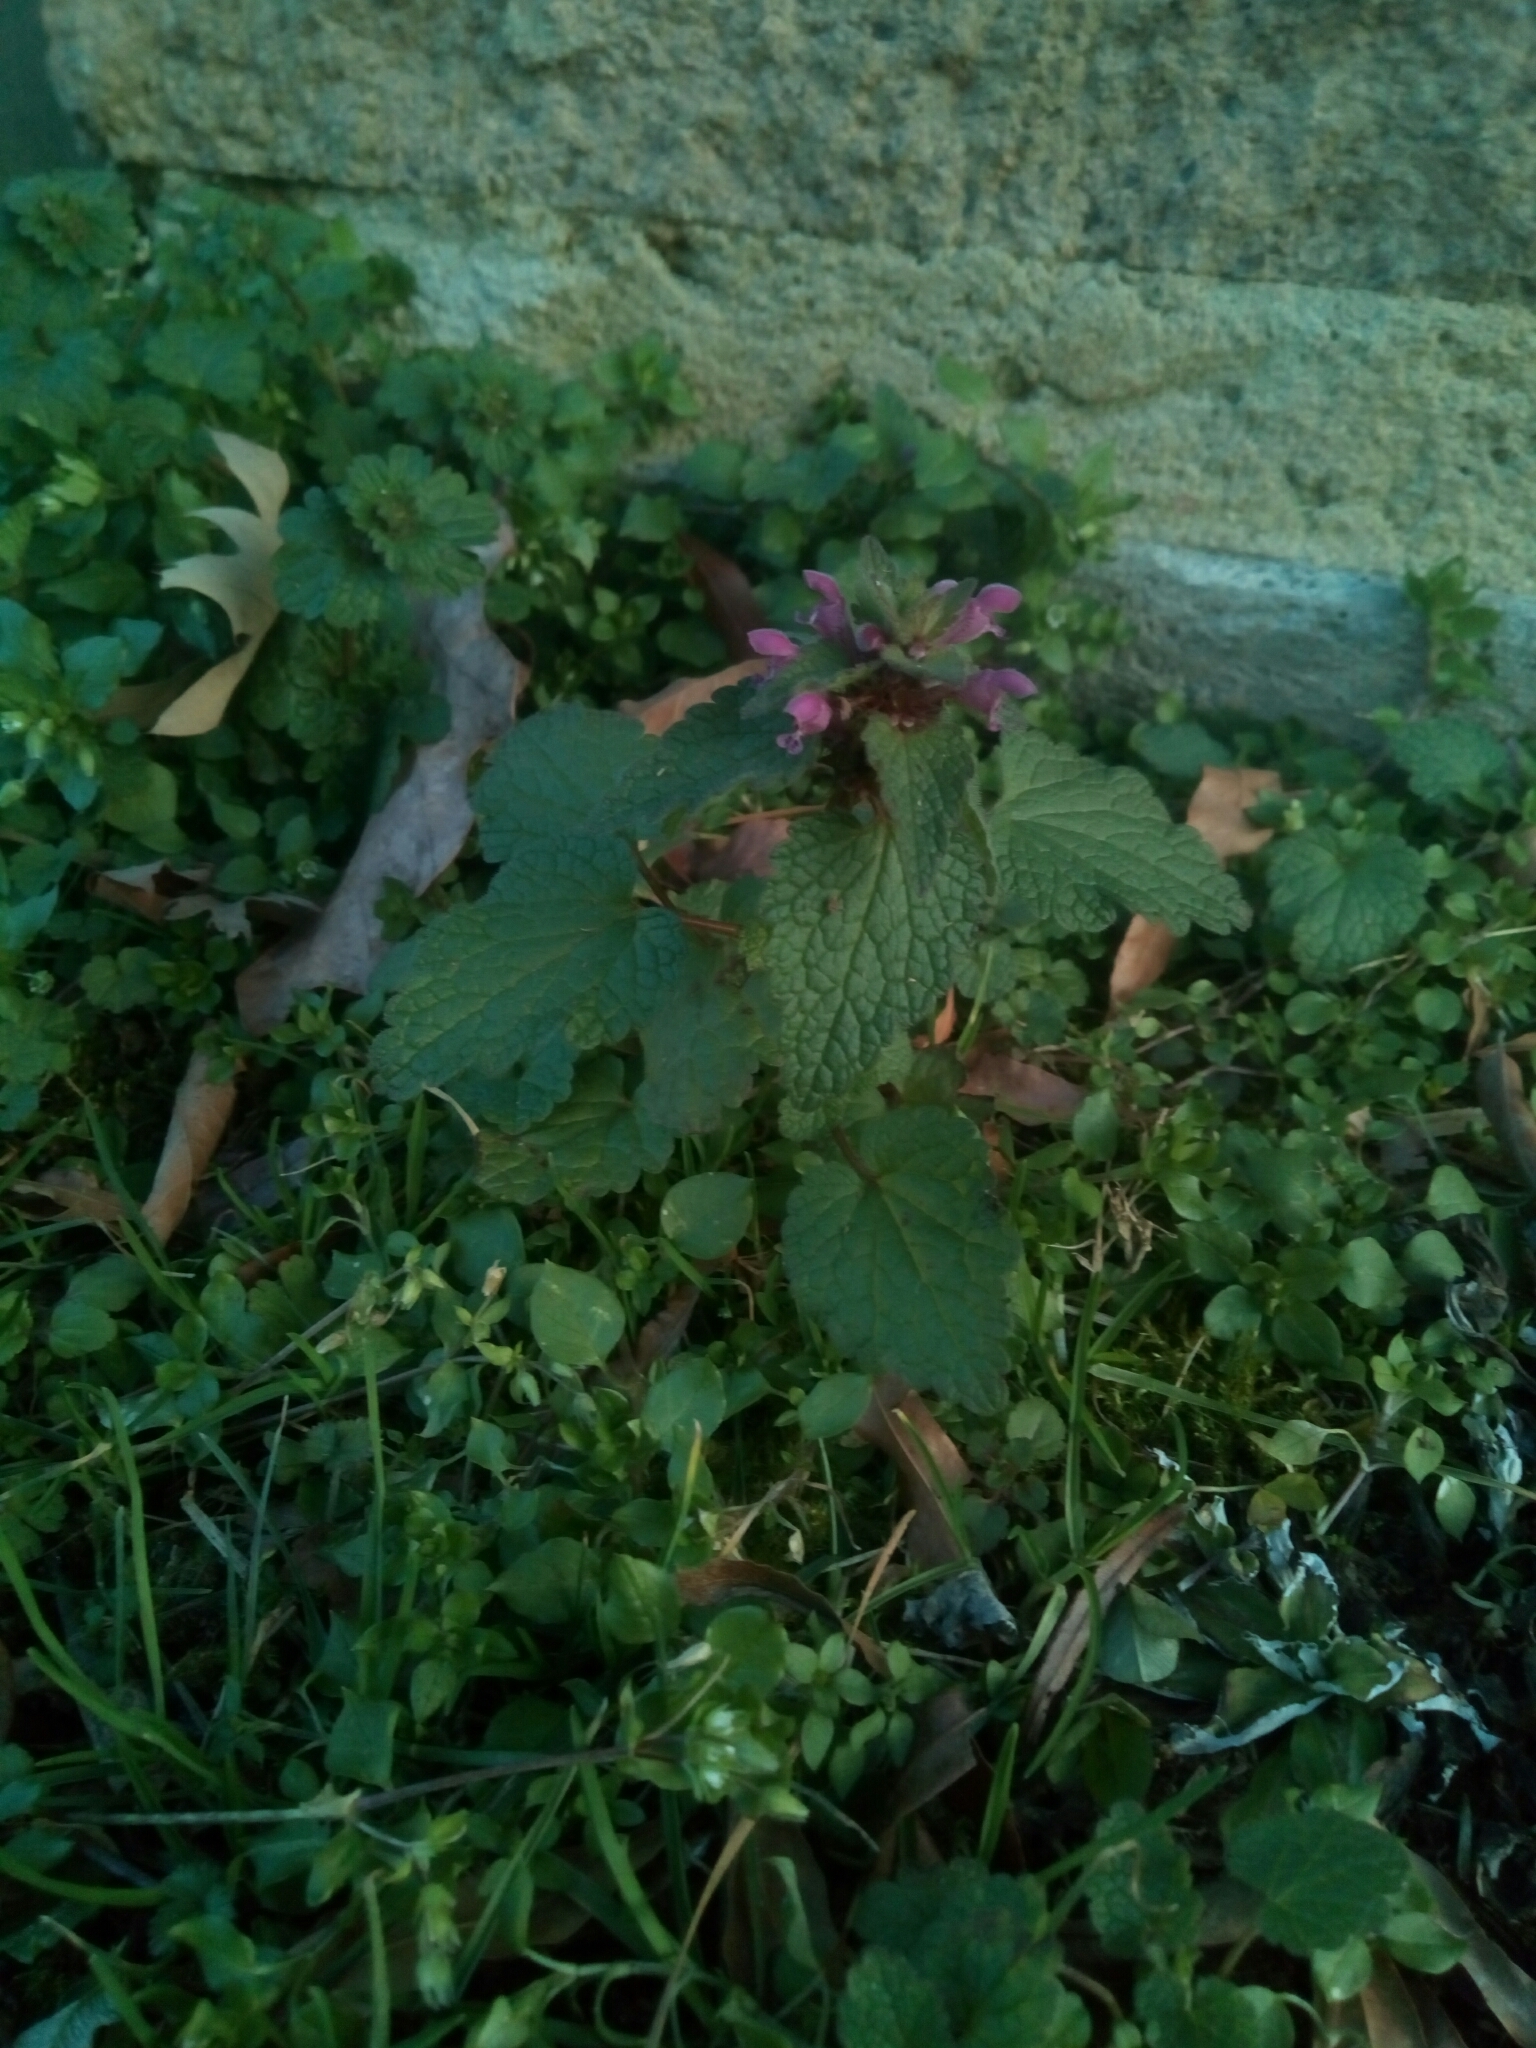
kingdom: Plantae
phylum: Tracheophyta
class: Magnoliopsida
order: Lamiales
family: Lamiaceae
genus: Lamium
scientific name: Lamium purpureum
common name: Red dead-nettle
